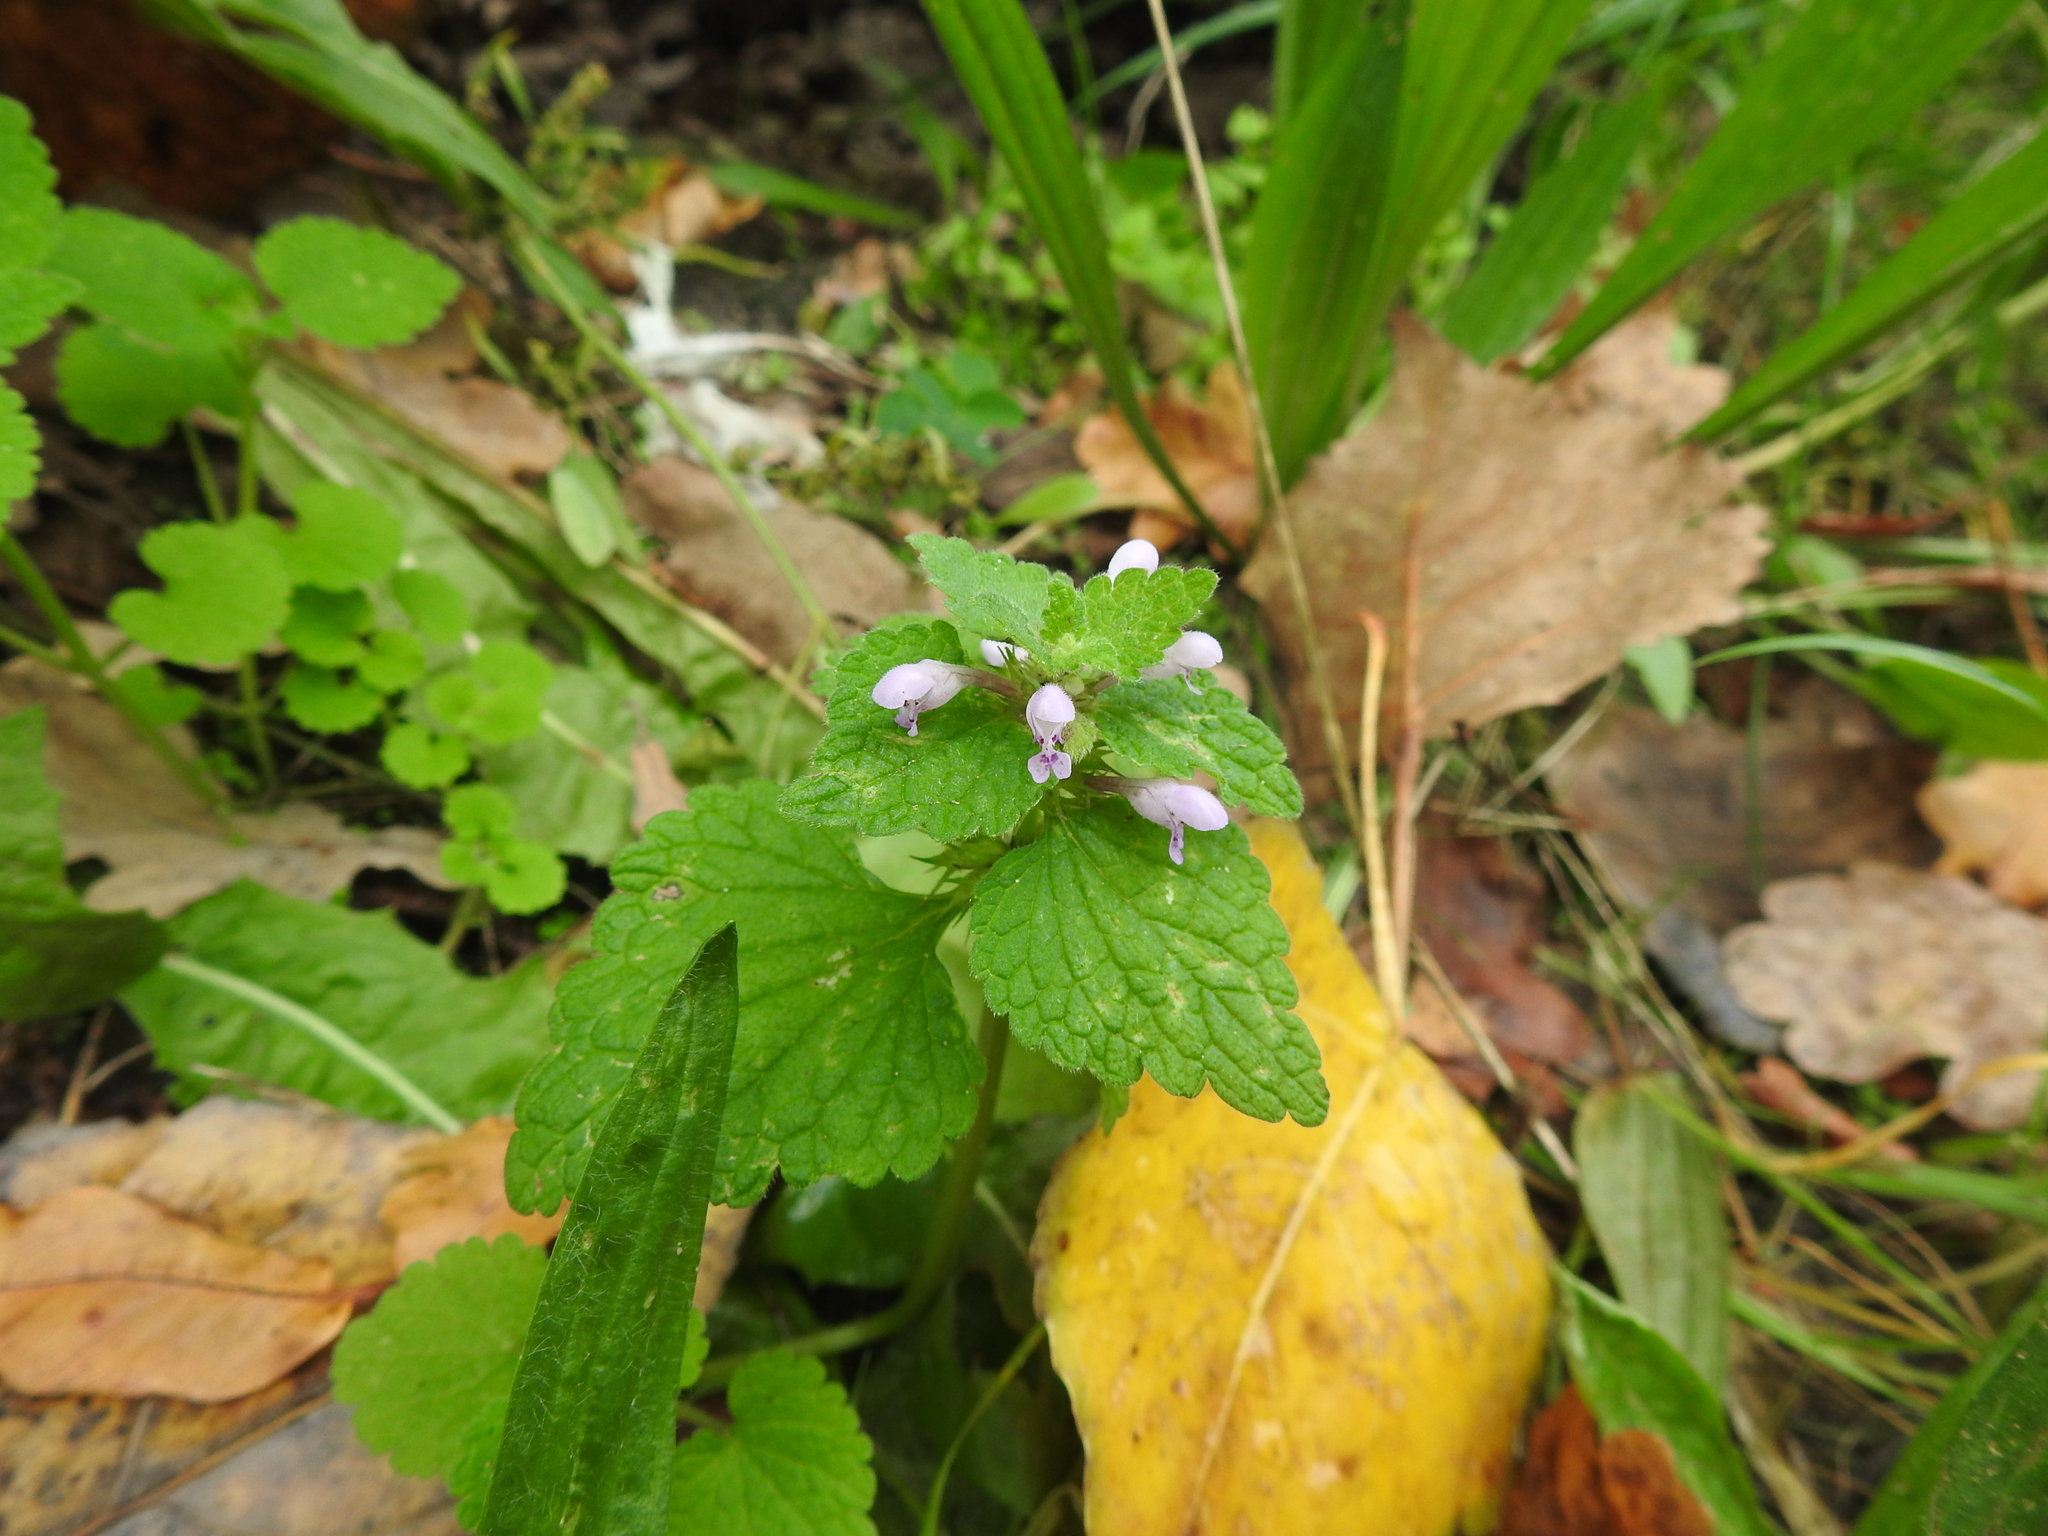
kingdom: Plantae
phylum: Tracheophyta
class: Magnoliopsida
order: Lamiales
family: Lamiaceae
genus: Lamium
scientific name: Lamium purpureum
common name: Red dead-nettle
